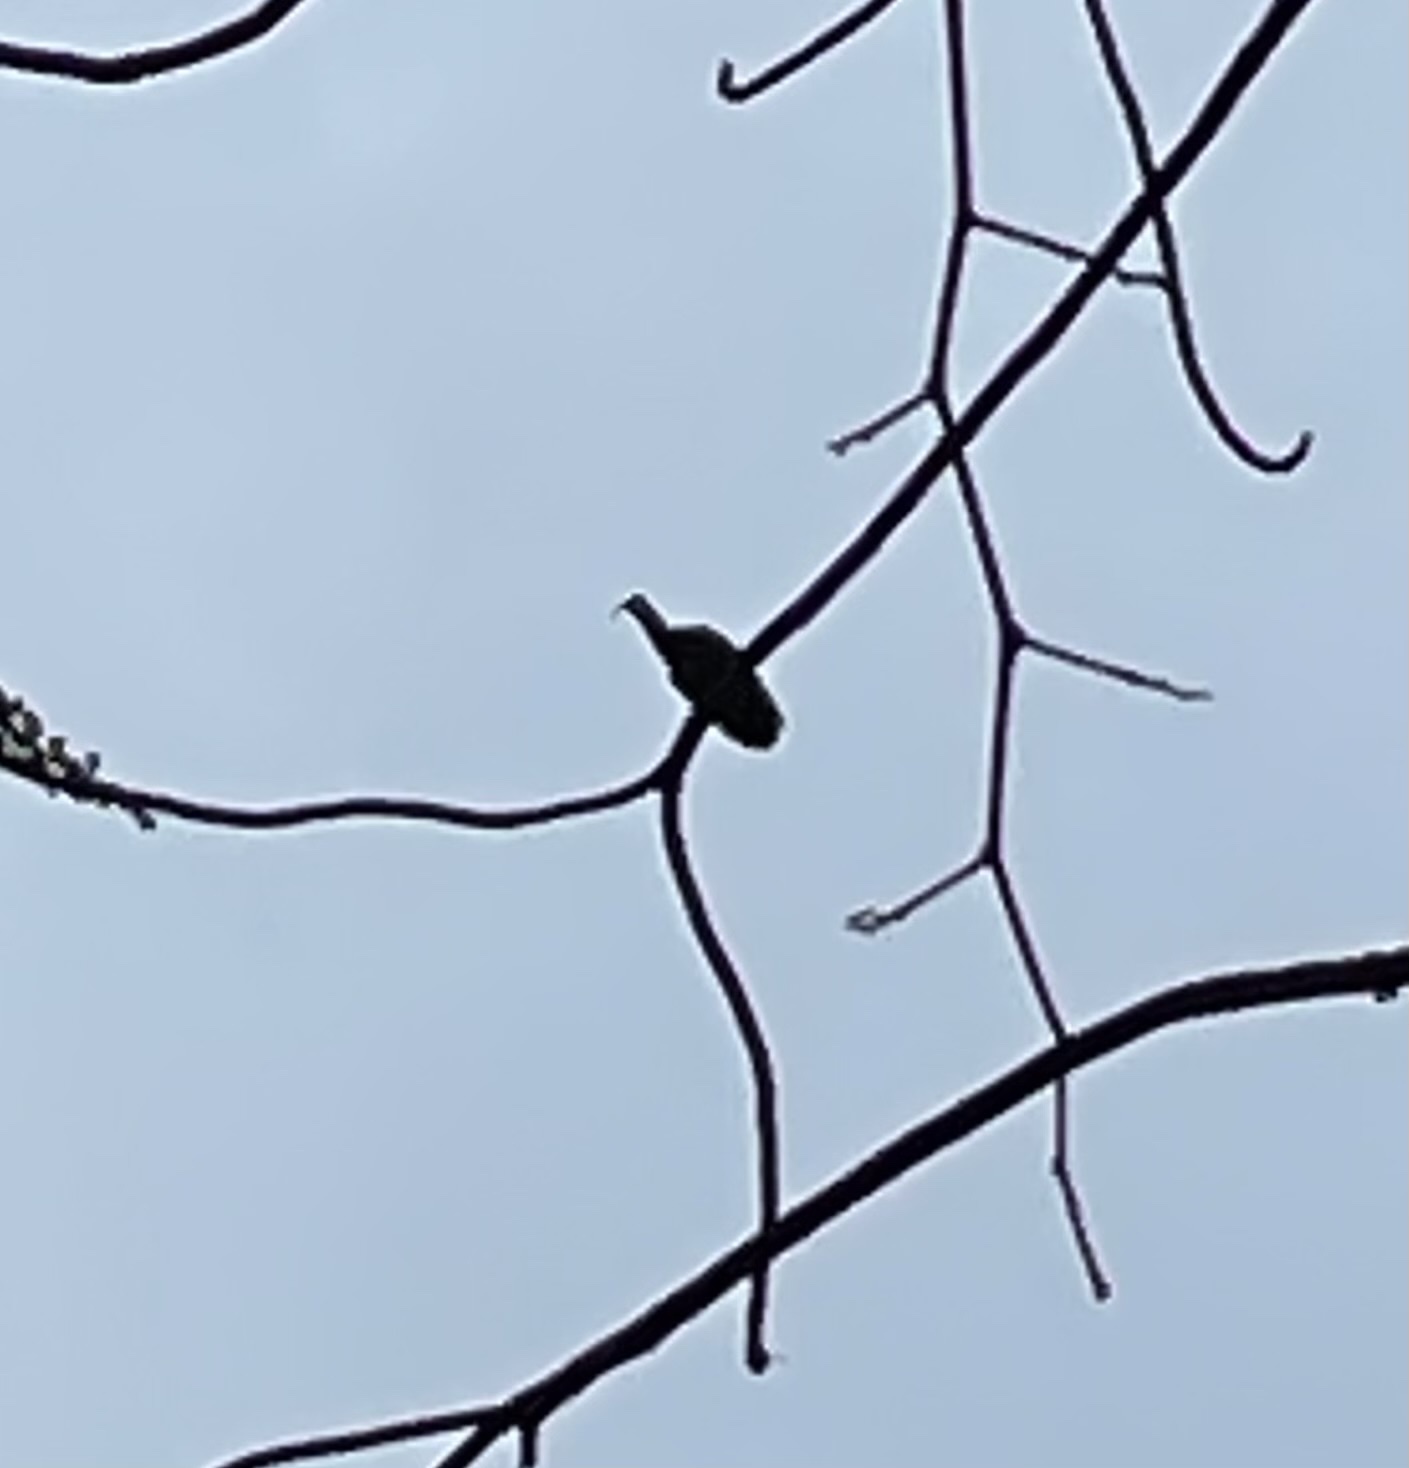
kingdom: Animalia
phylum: Chordata
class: Aves
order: Pelecaniformes
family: Threskiornithidae
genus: Mesembrinibis
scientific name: Mesembrinibis cayennensis
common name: Green ibis
